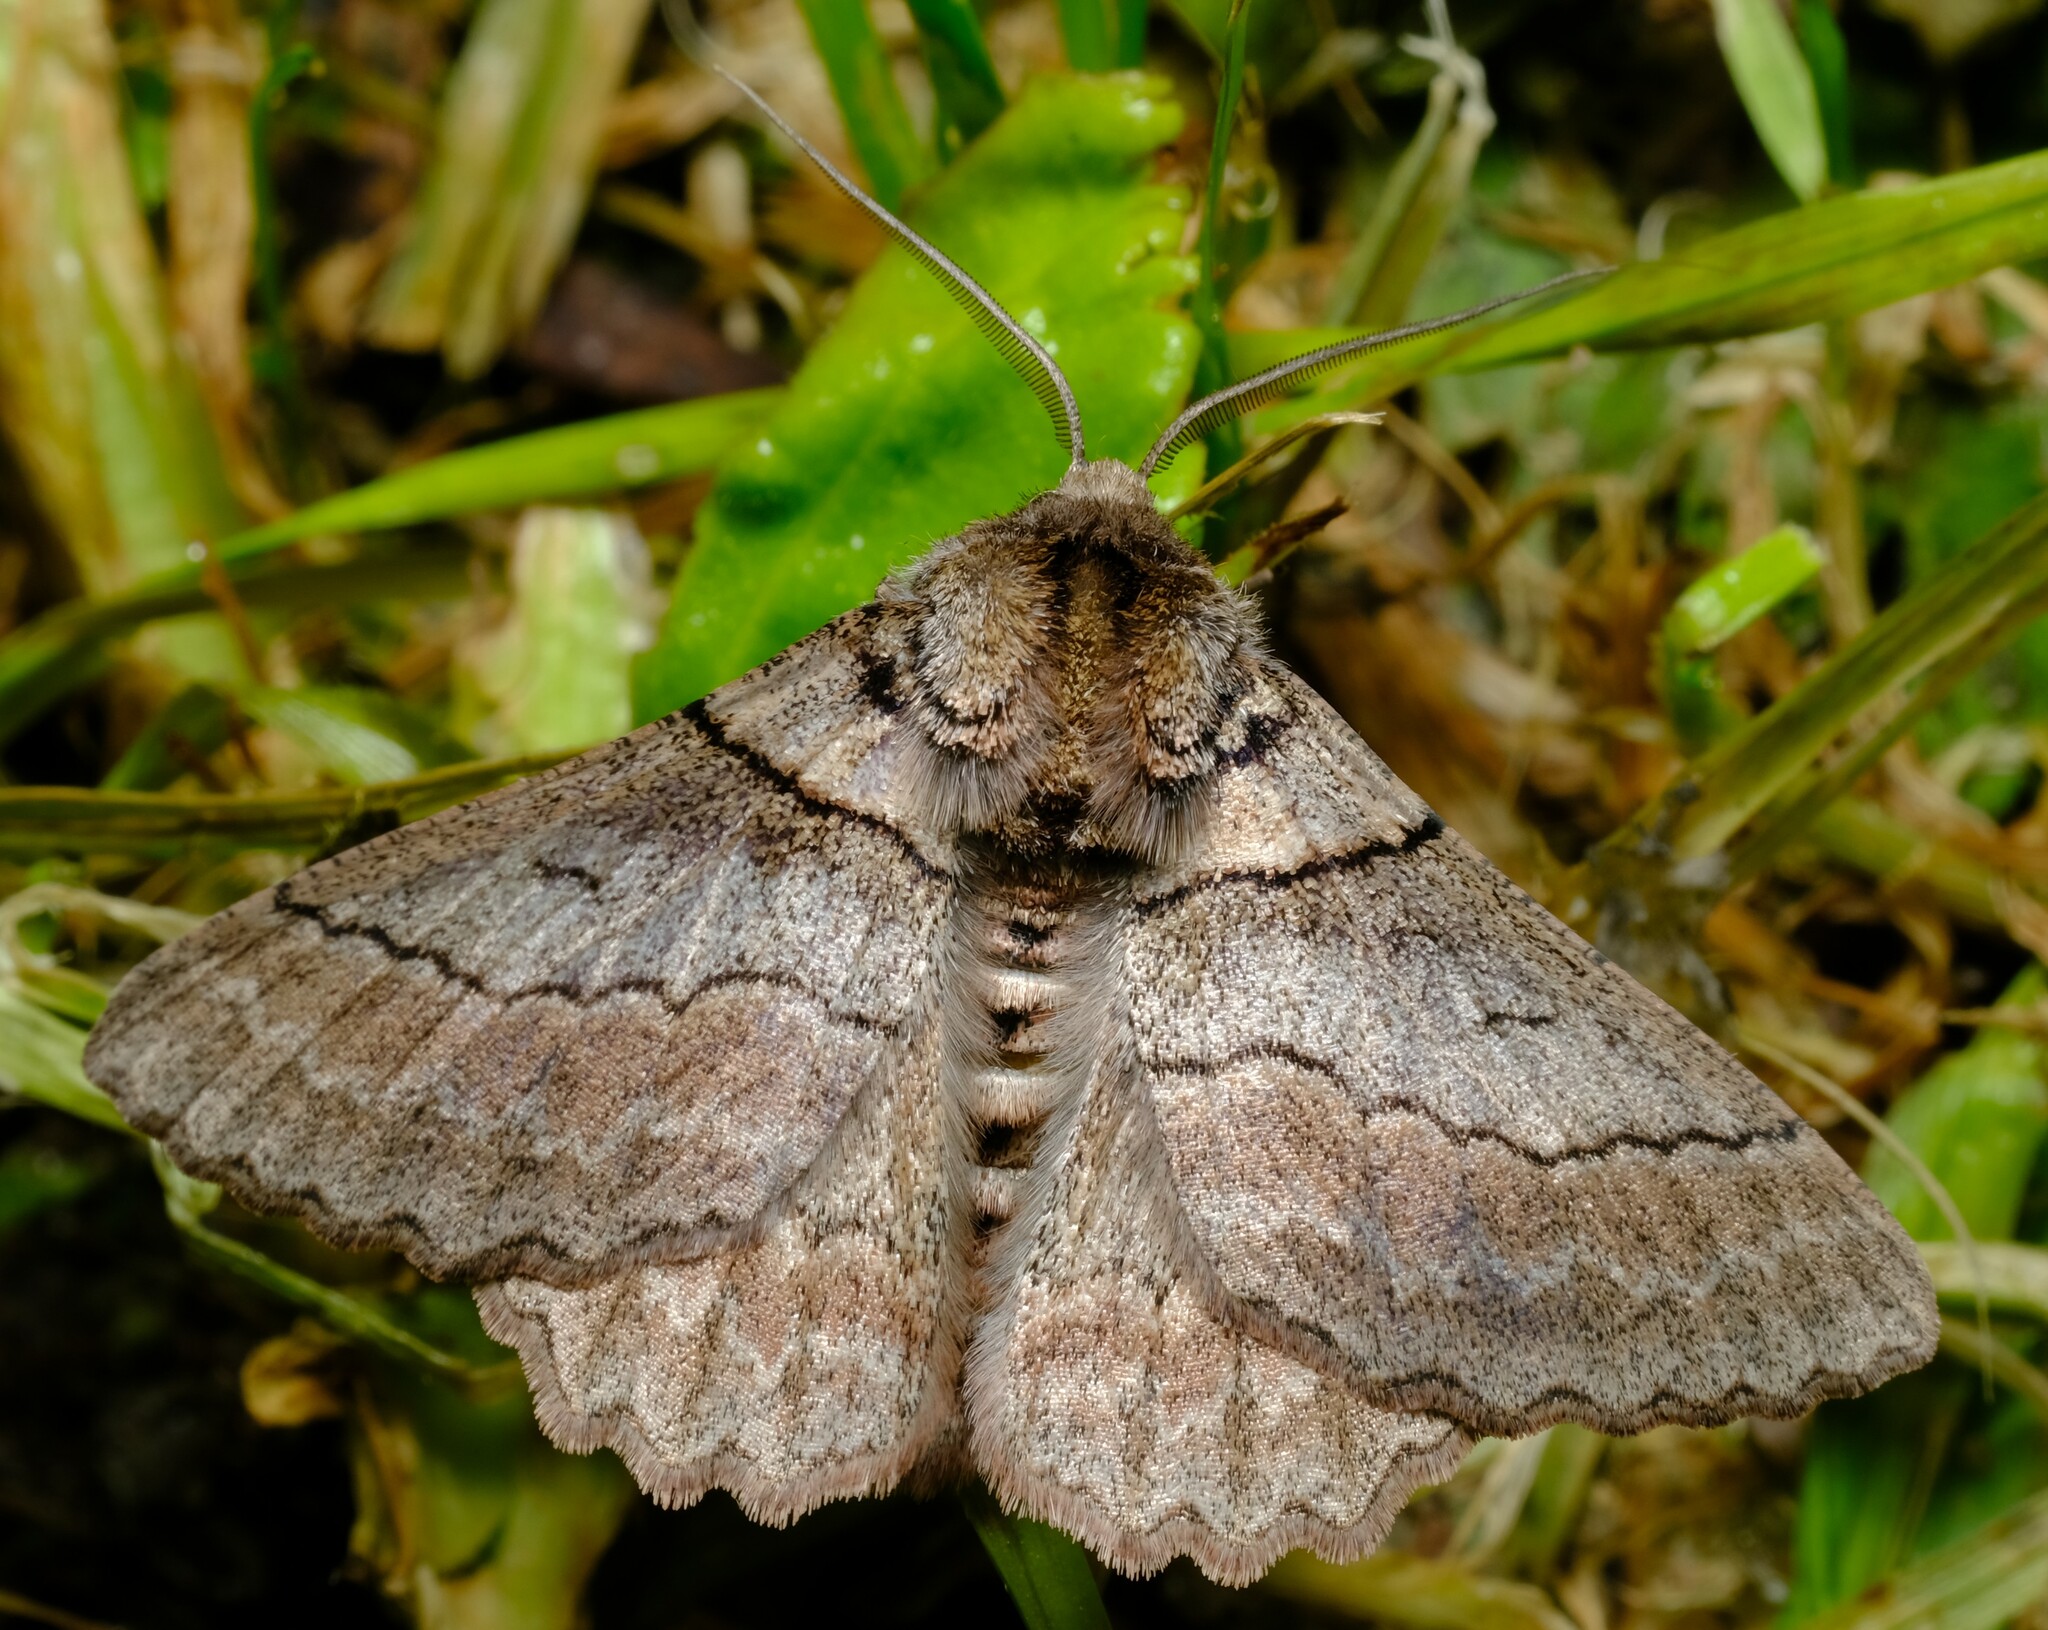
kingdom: Animalia
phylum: Arthropoda
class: Insecta
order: Lepidoptera
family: Geometridae
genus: Hypobapta
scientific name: Hypobapta tachyhalotaria
